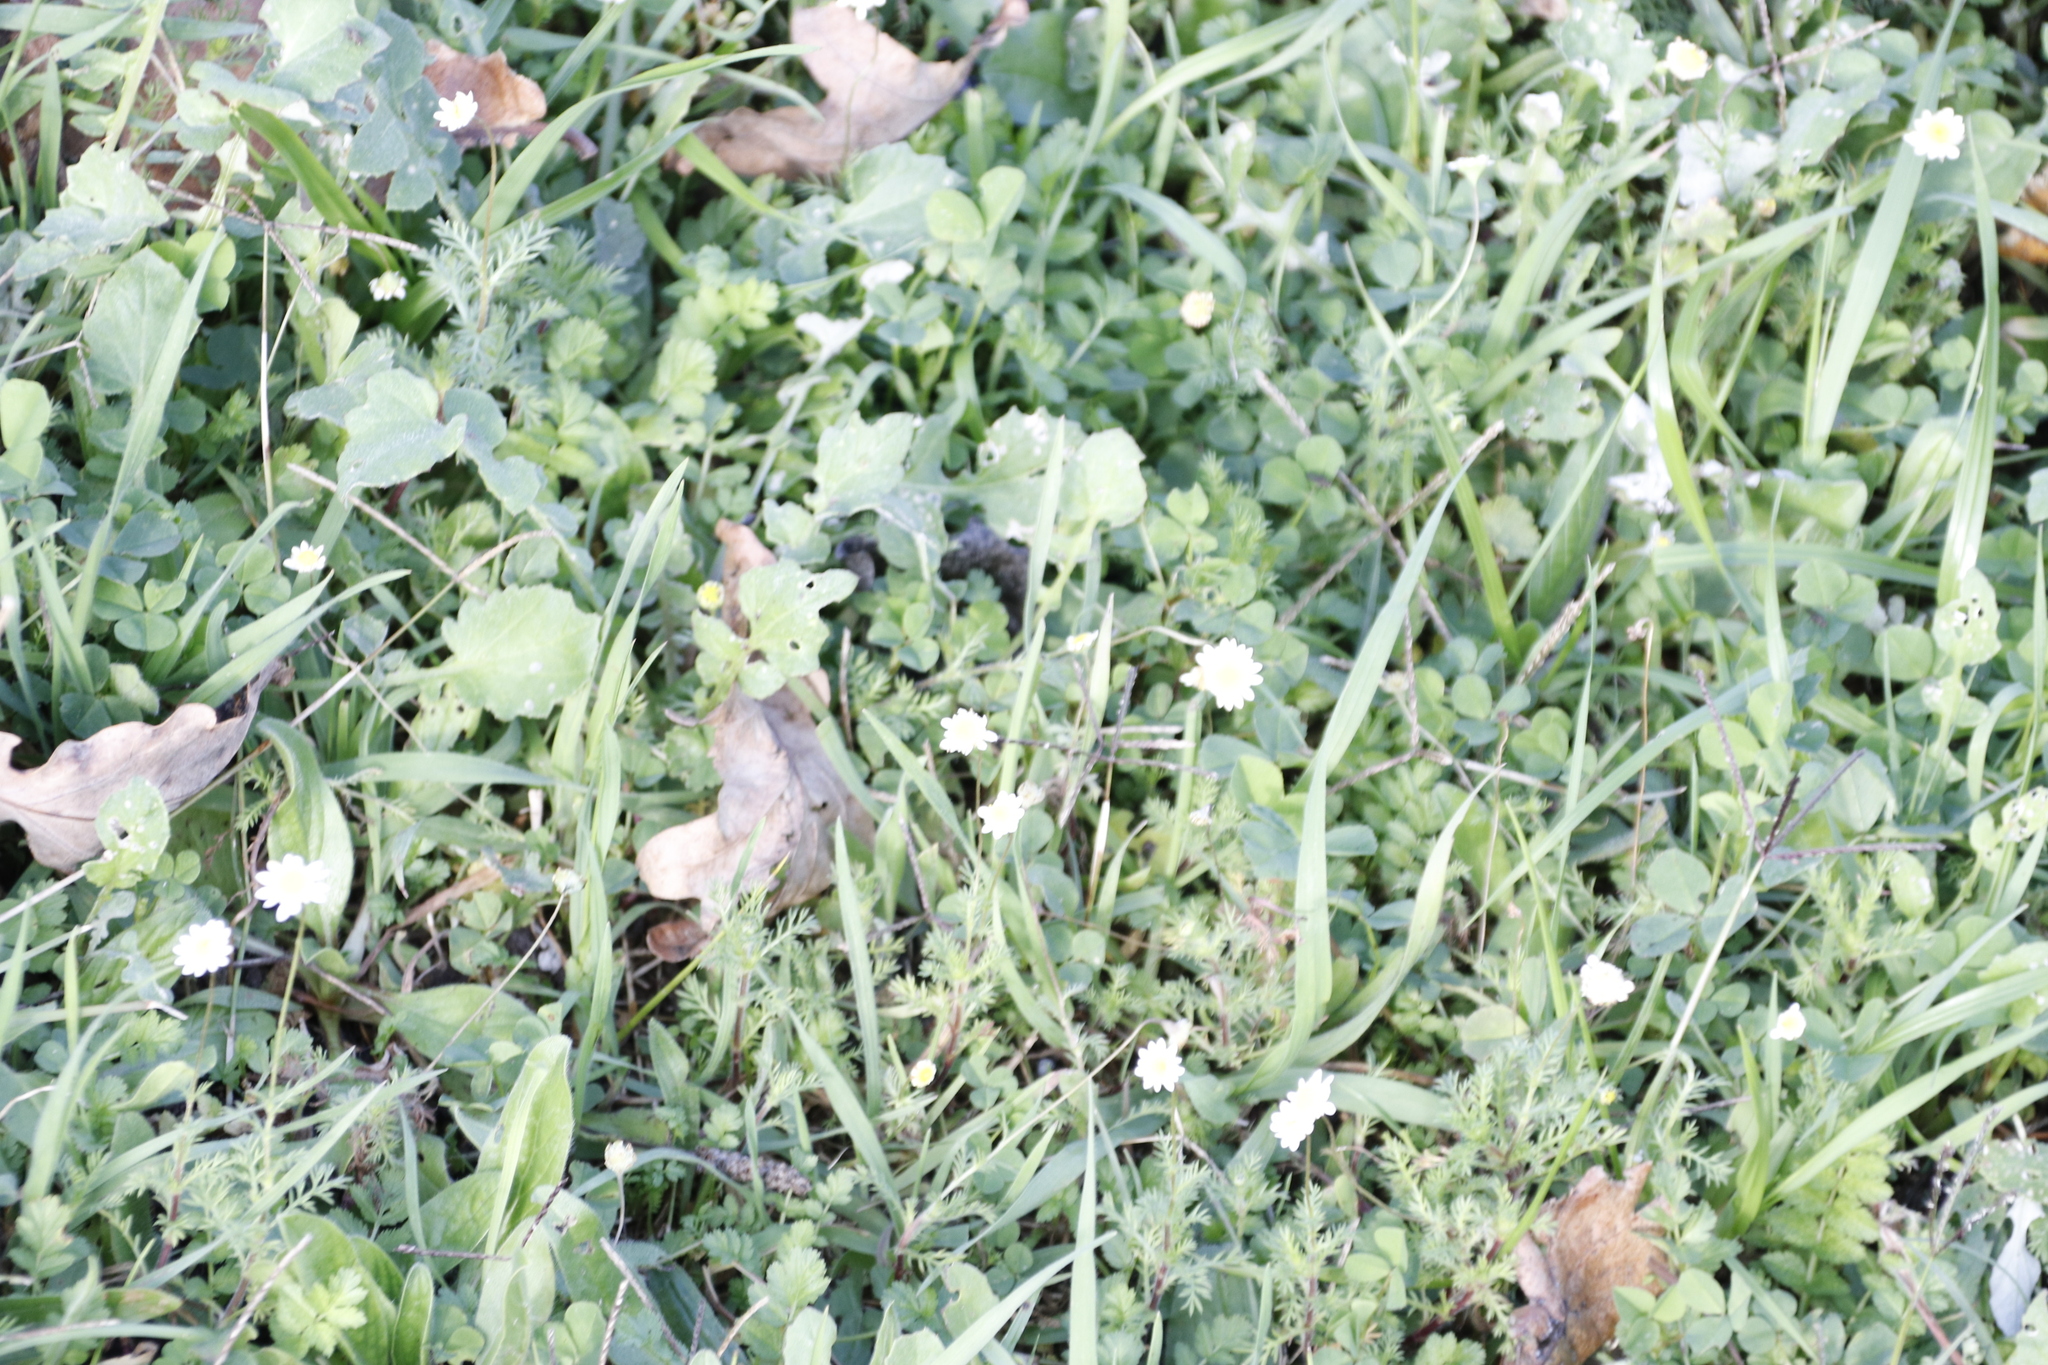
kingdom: Plantae
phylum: Tracheophyta
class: Magnoliopsida
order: Asterales
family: Asteraceae
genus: Cotula
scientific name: Cotula turbinata
